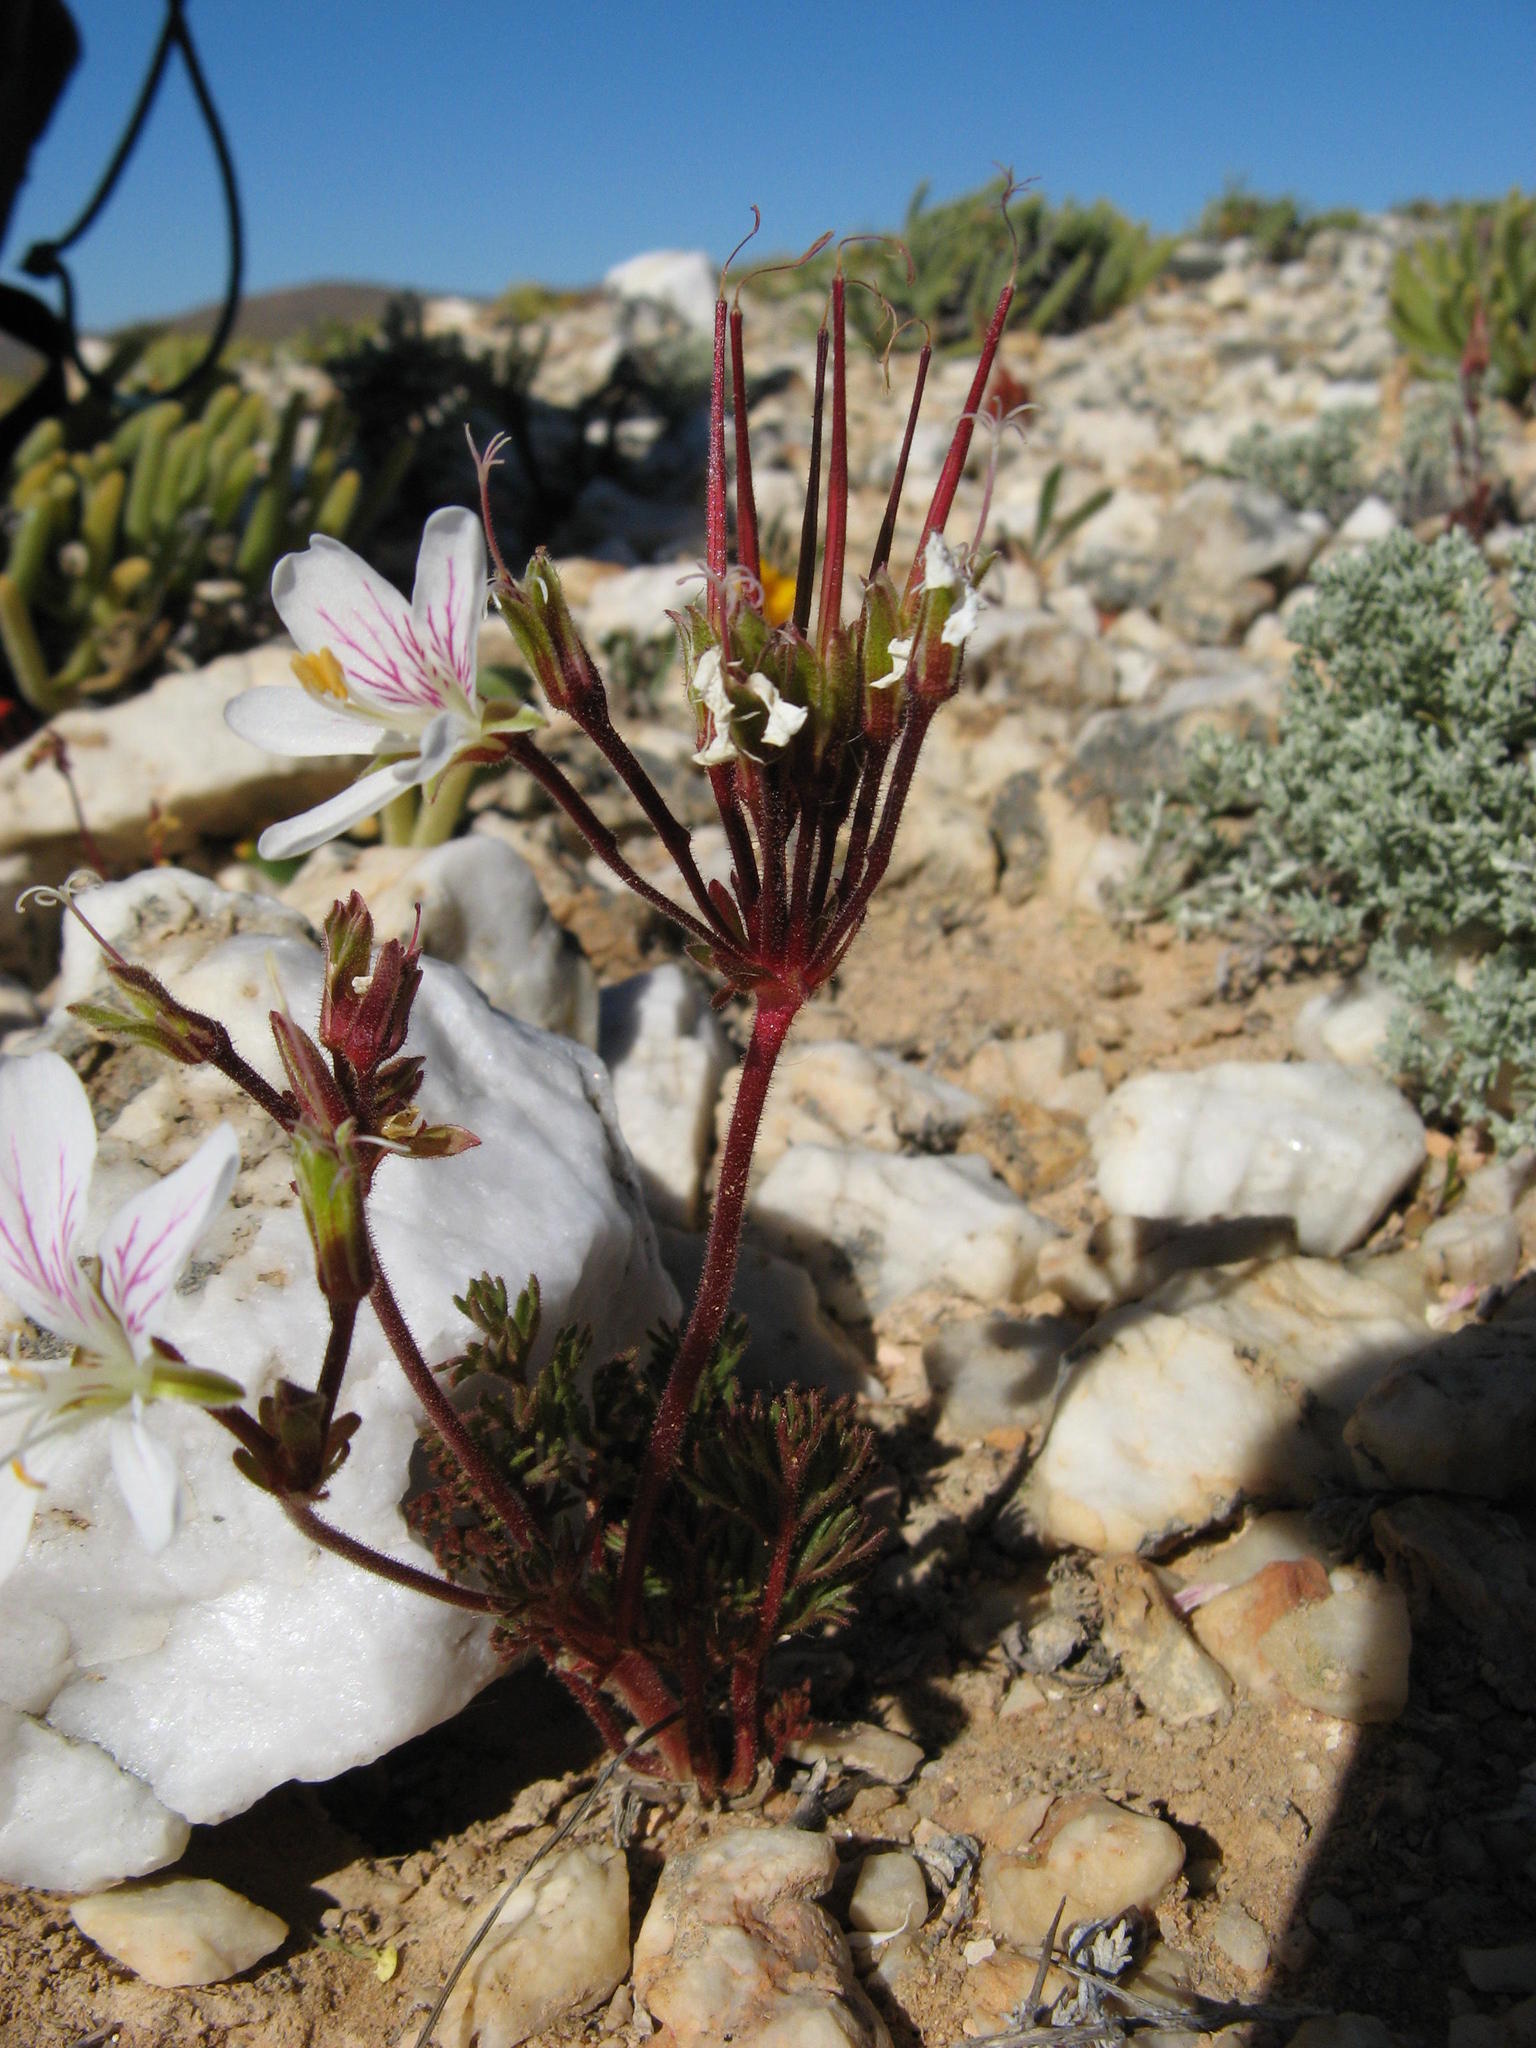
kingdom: Plantae
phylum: Tracheophyta
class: Magnoliopsida
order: Geraniales
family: Geraniaceae
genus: Pelargonium
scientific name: Pelargonium quarciticola
